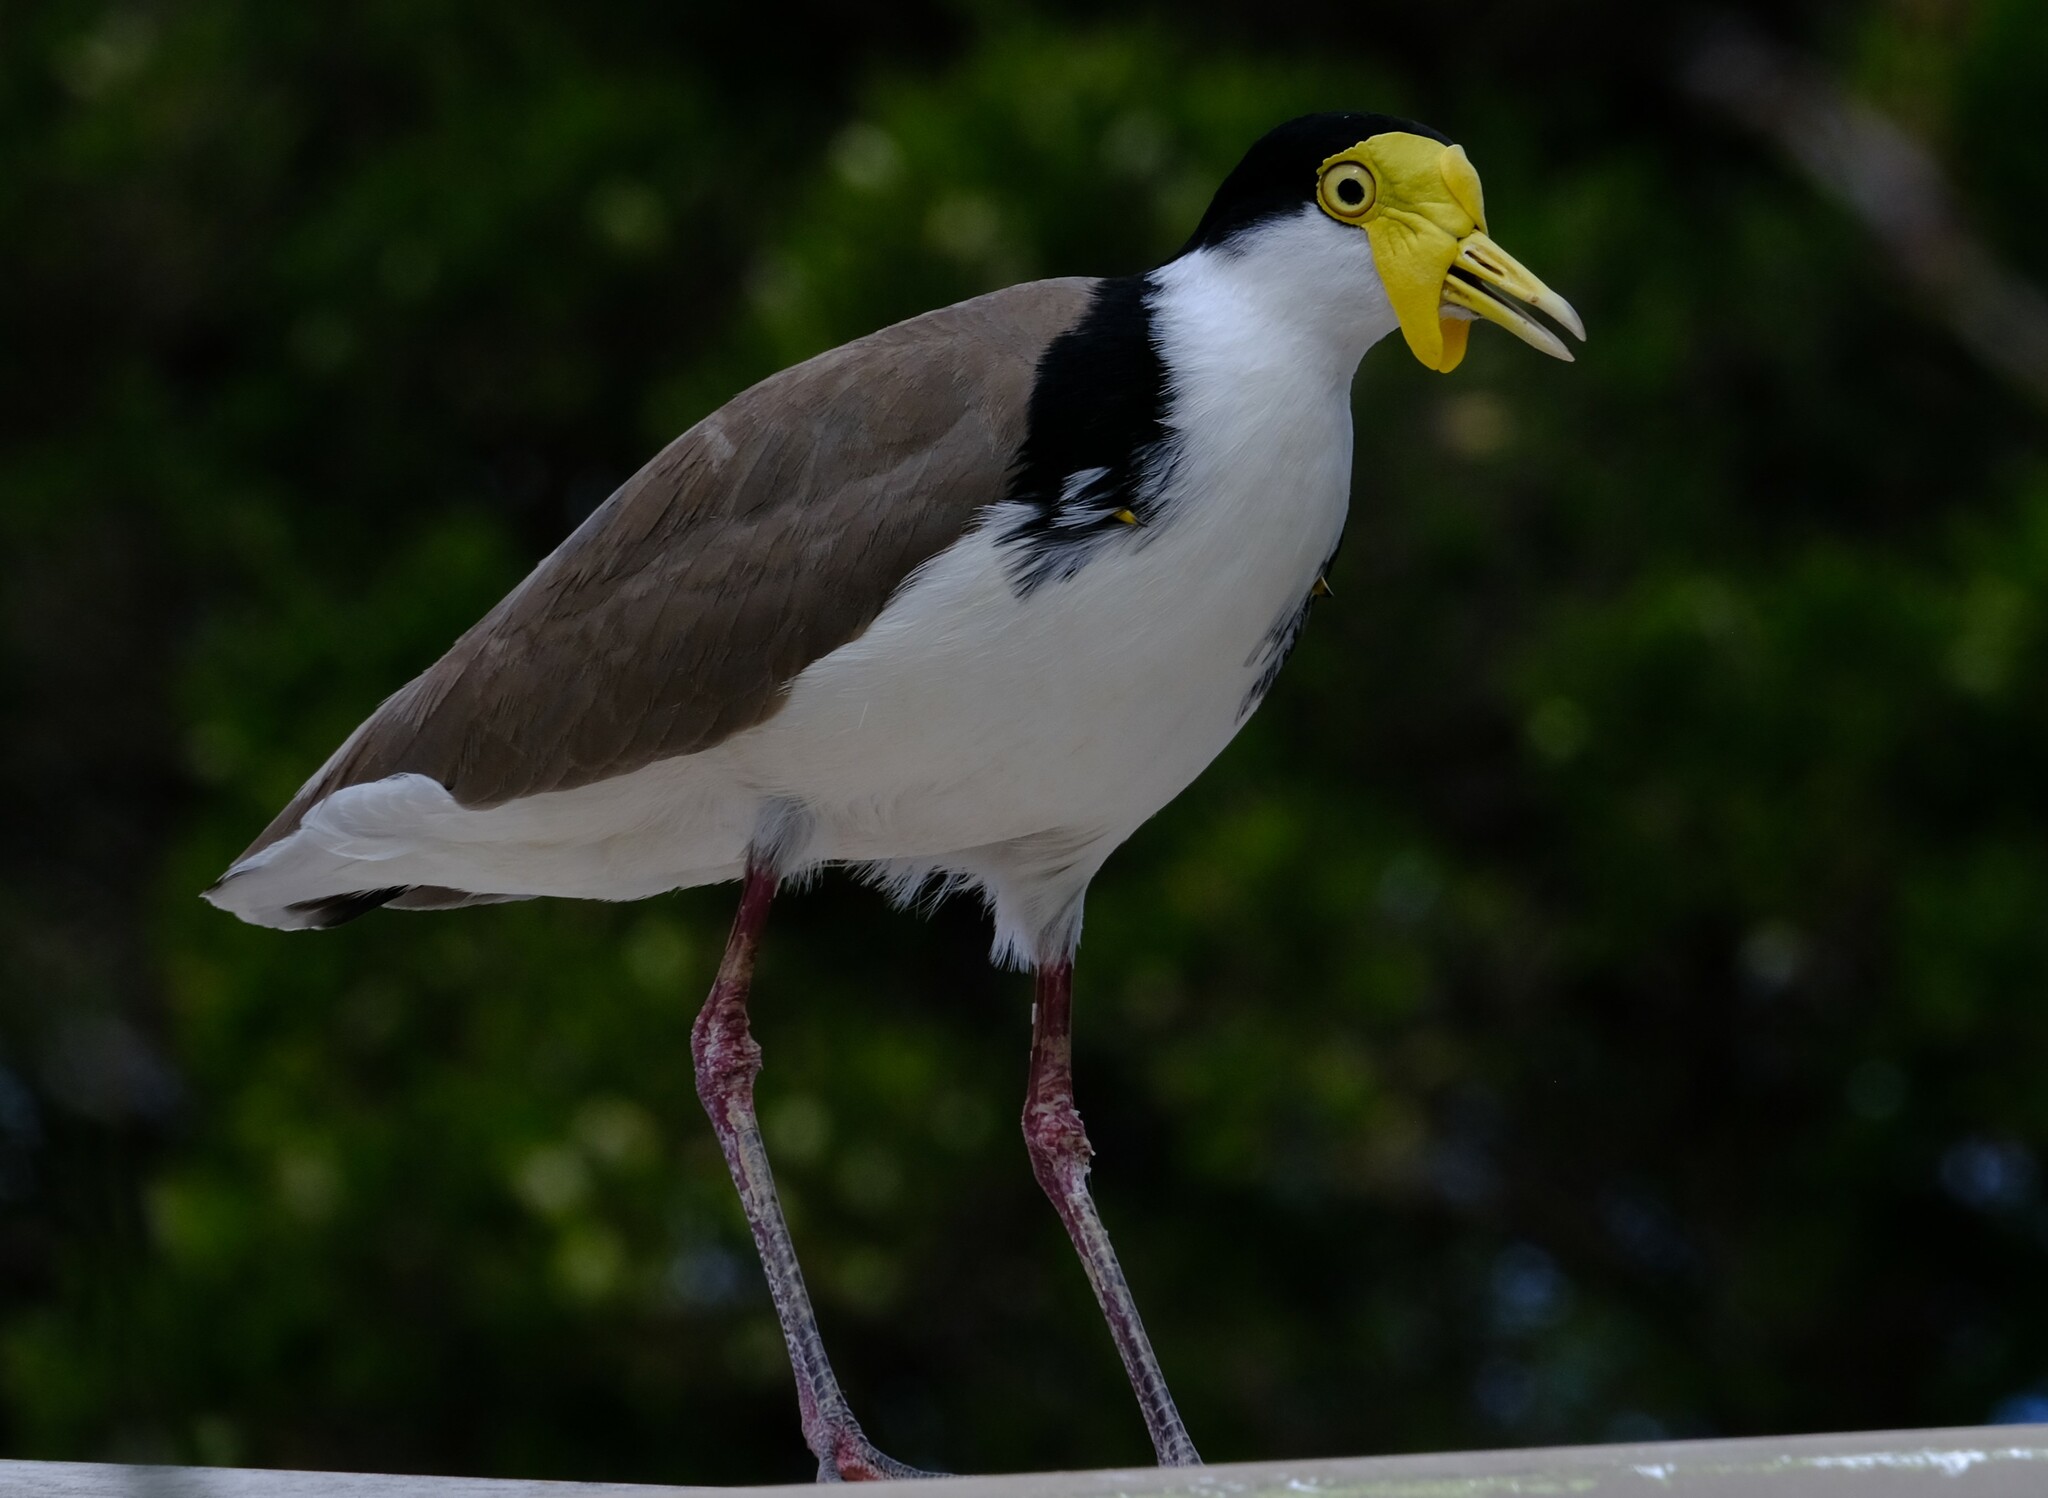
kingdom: Animalia
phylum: Chordata
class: Aves
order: Charadriiformes
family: Charadriidae
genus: Vanellus
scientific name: Vanellus miles
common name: Masked lapwing
